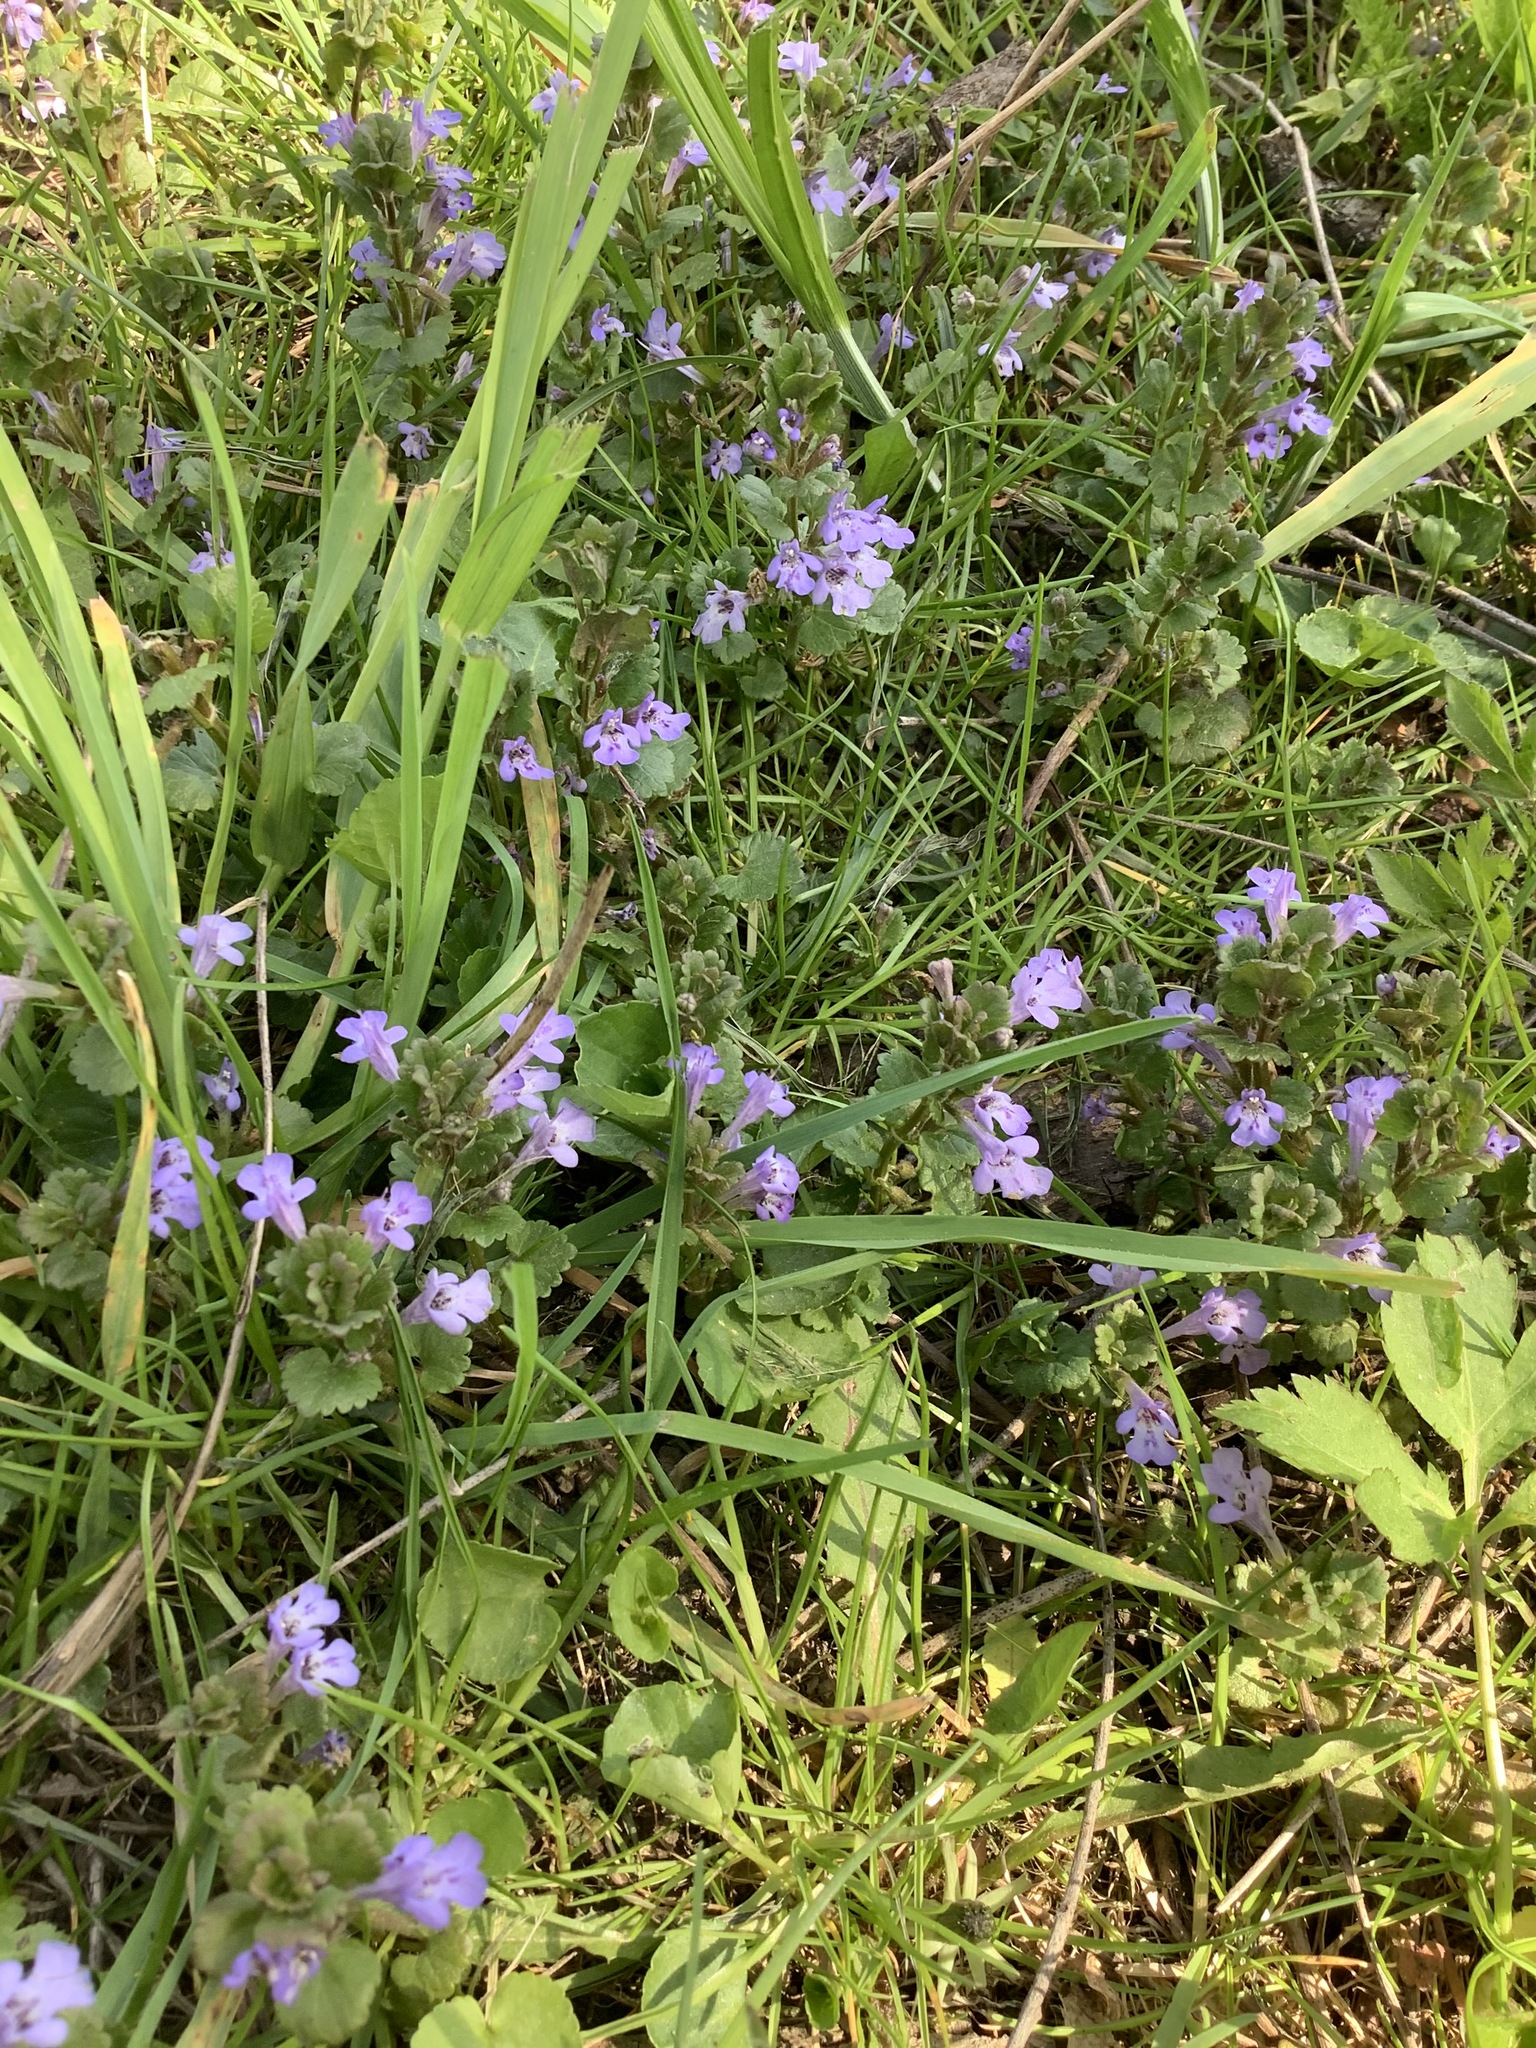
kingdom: Plantae
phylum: Tracheophyta
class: Magnoliopsida
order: Lamiales
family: Lamiaceae
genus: Glechoma
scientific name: Glechoma hederacea
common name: Ground ivy
